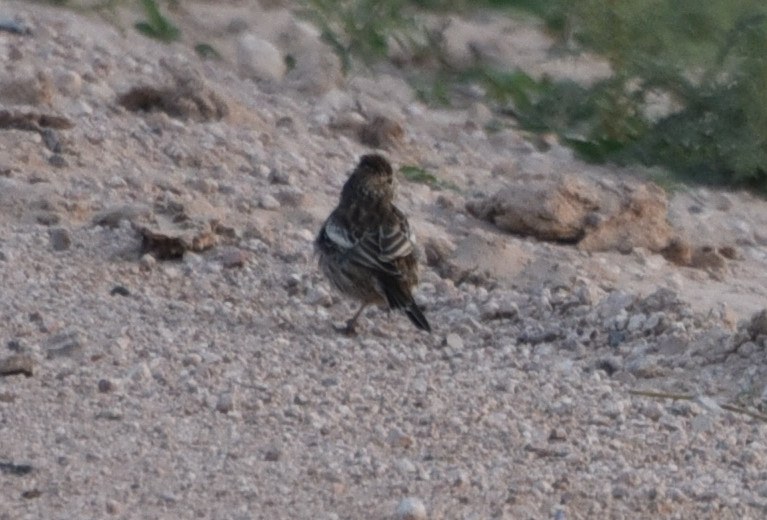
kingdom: Animalia
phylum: Chordata
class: Aves
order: Passeriformes
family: Passerellidae
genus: Calamospiza
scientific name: Calamospiza melanocorys
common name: Lark bunting
